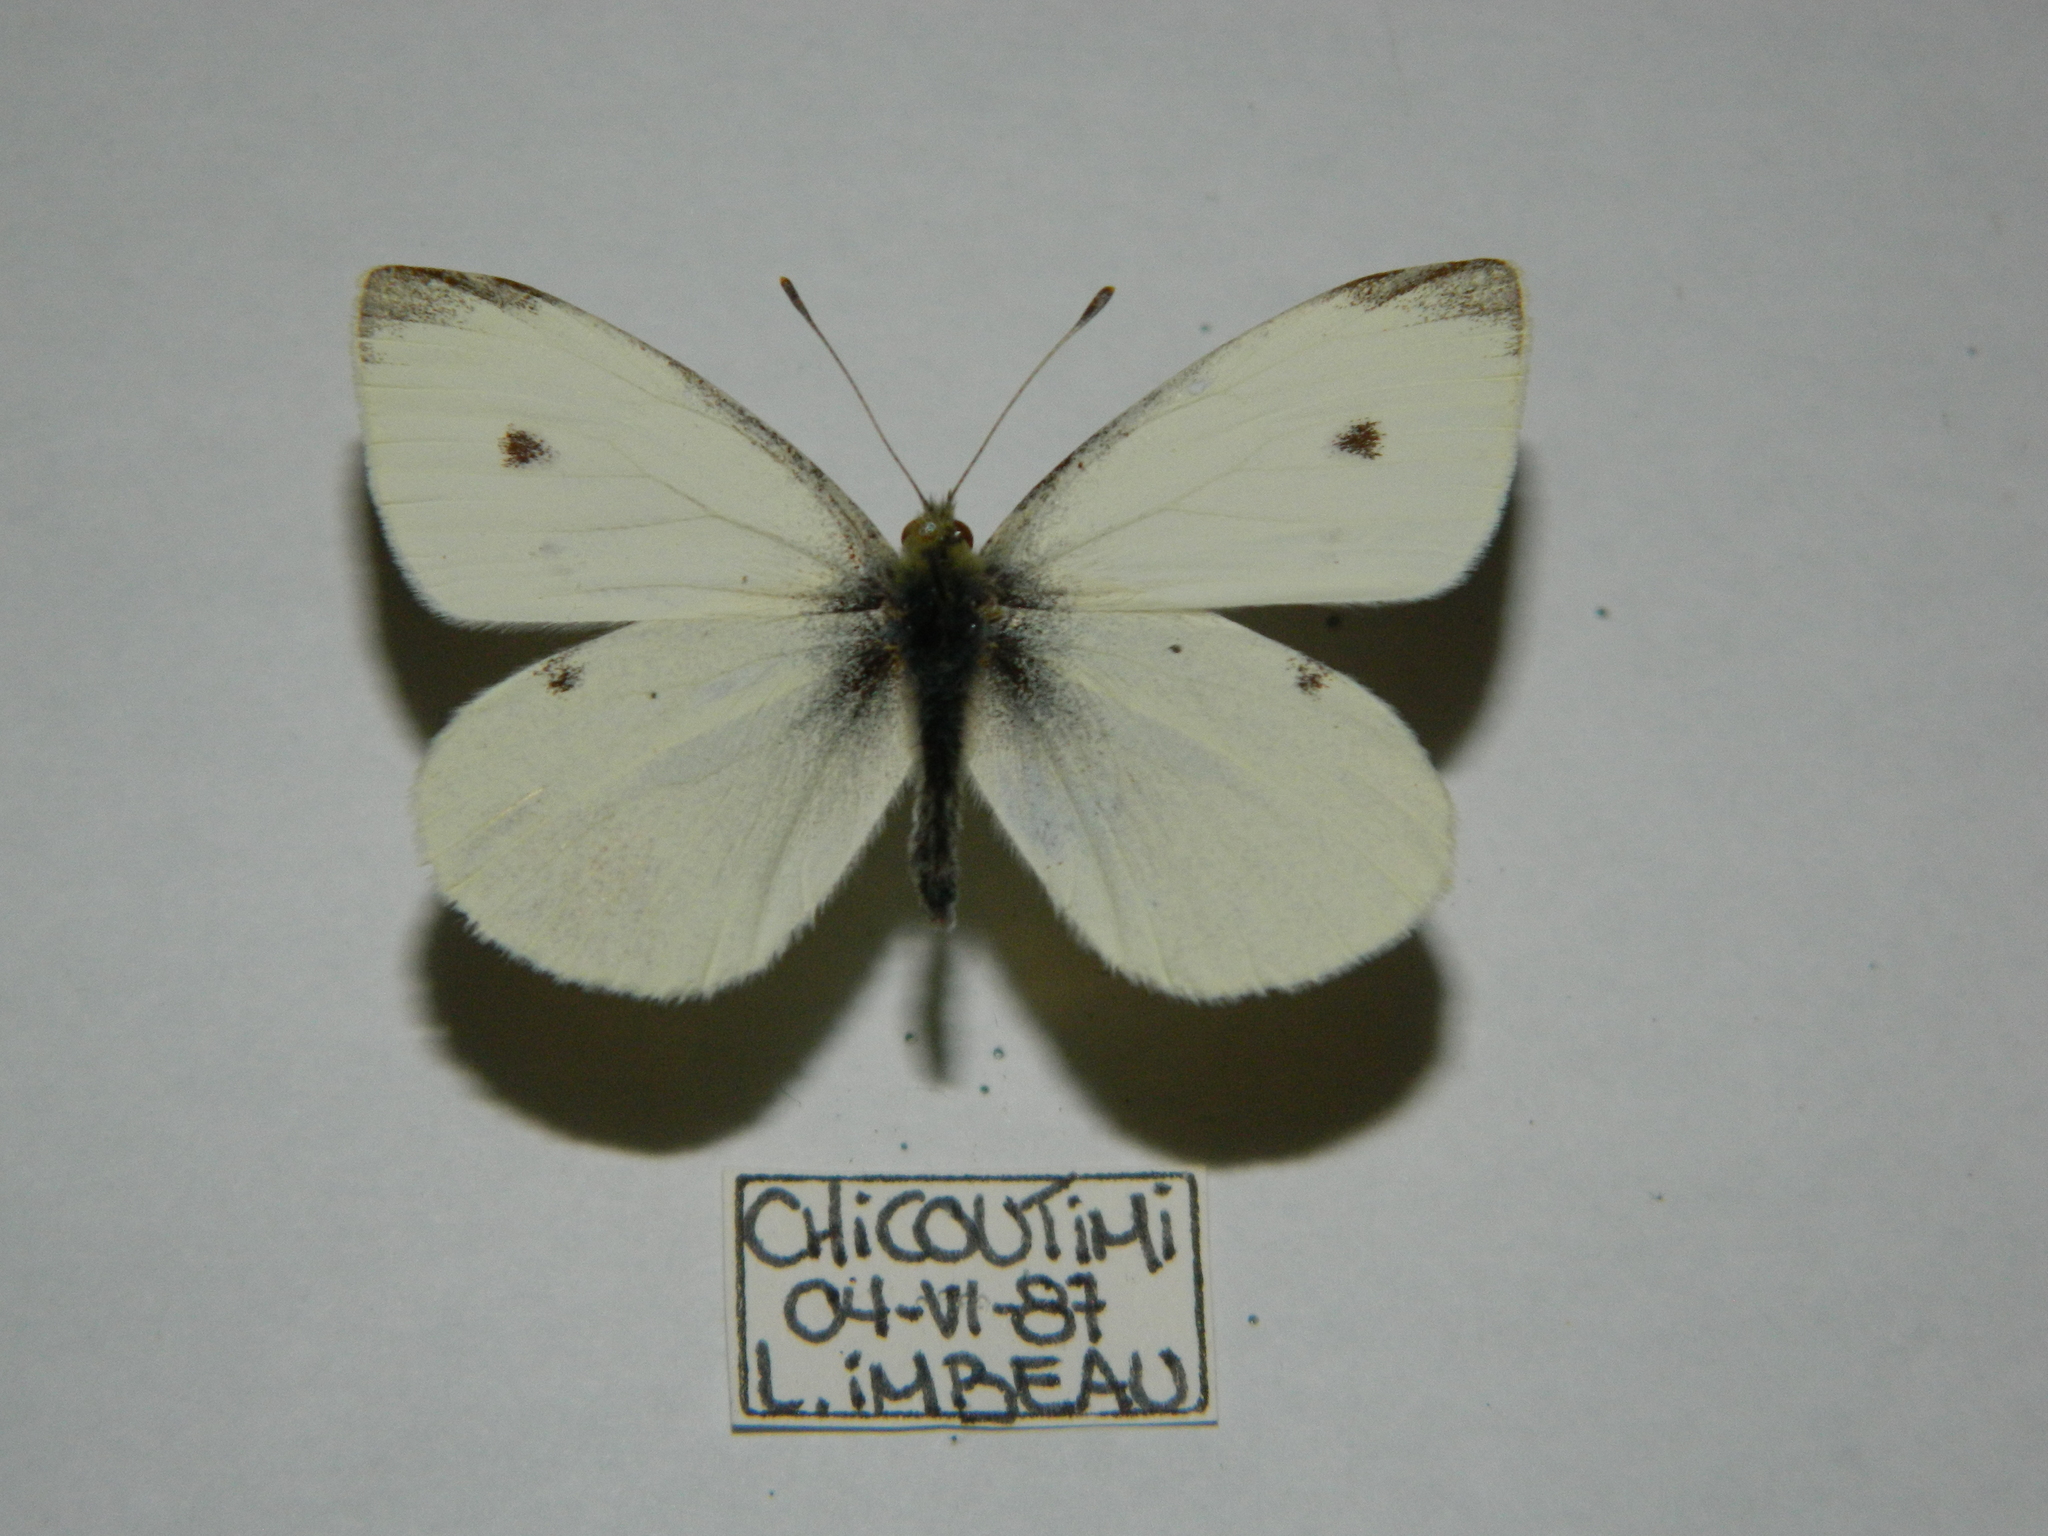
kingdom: Animalia
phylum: Arthropoda
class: Insecta
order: Lepidoptera
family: Pieridae
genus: Pieris
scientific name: Pieris rapae
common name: Small white
